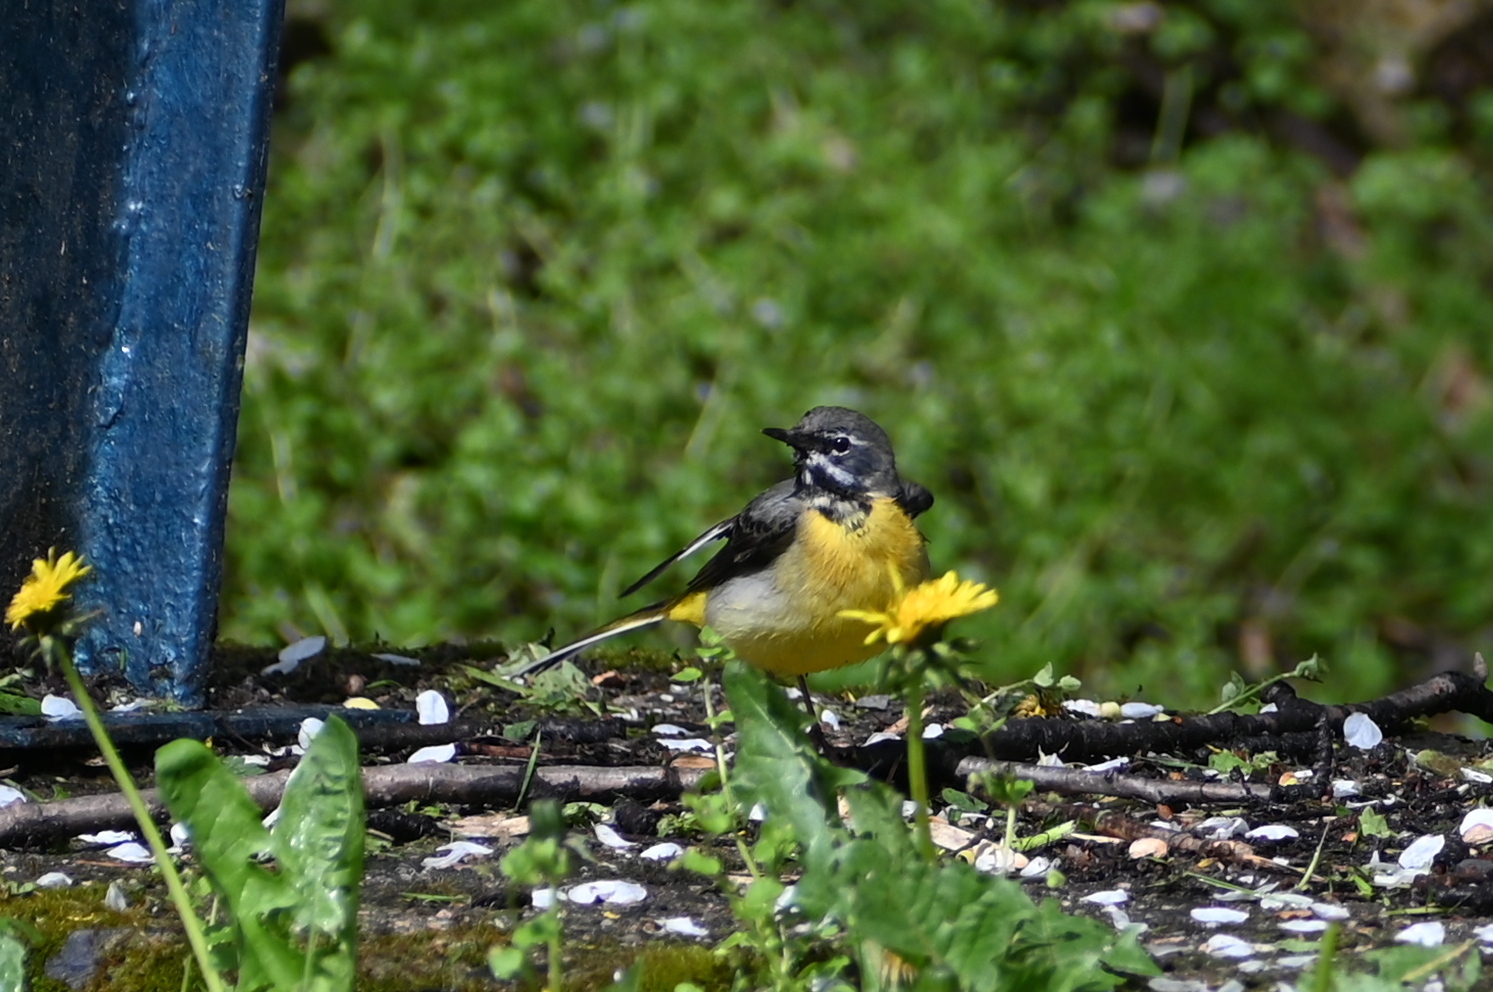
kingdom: Animalia
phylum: Chordata
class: Aves
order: Passeriformes
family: Motacillidae
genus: Motacilla
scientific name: Motacilla cinerea
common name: Grey wagtail
